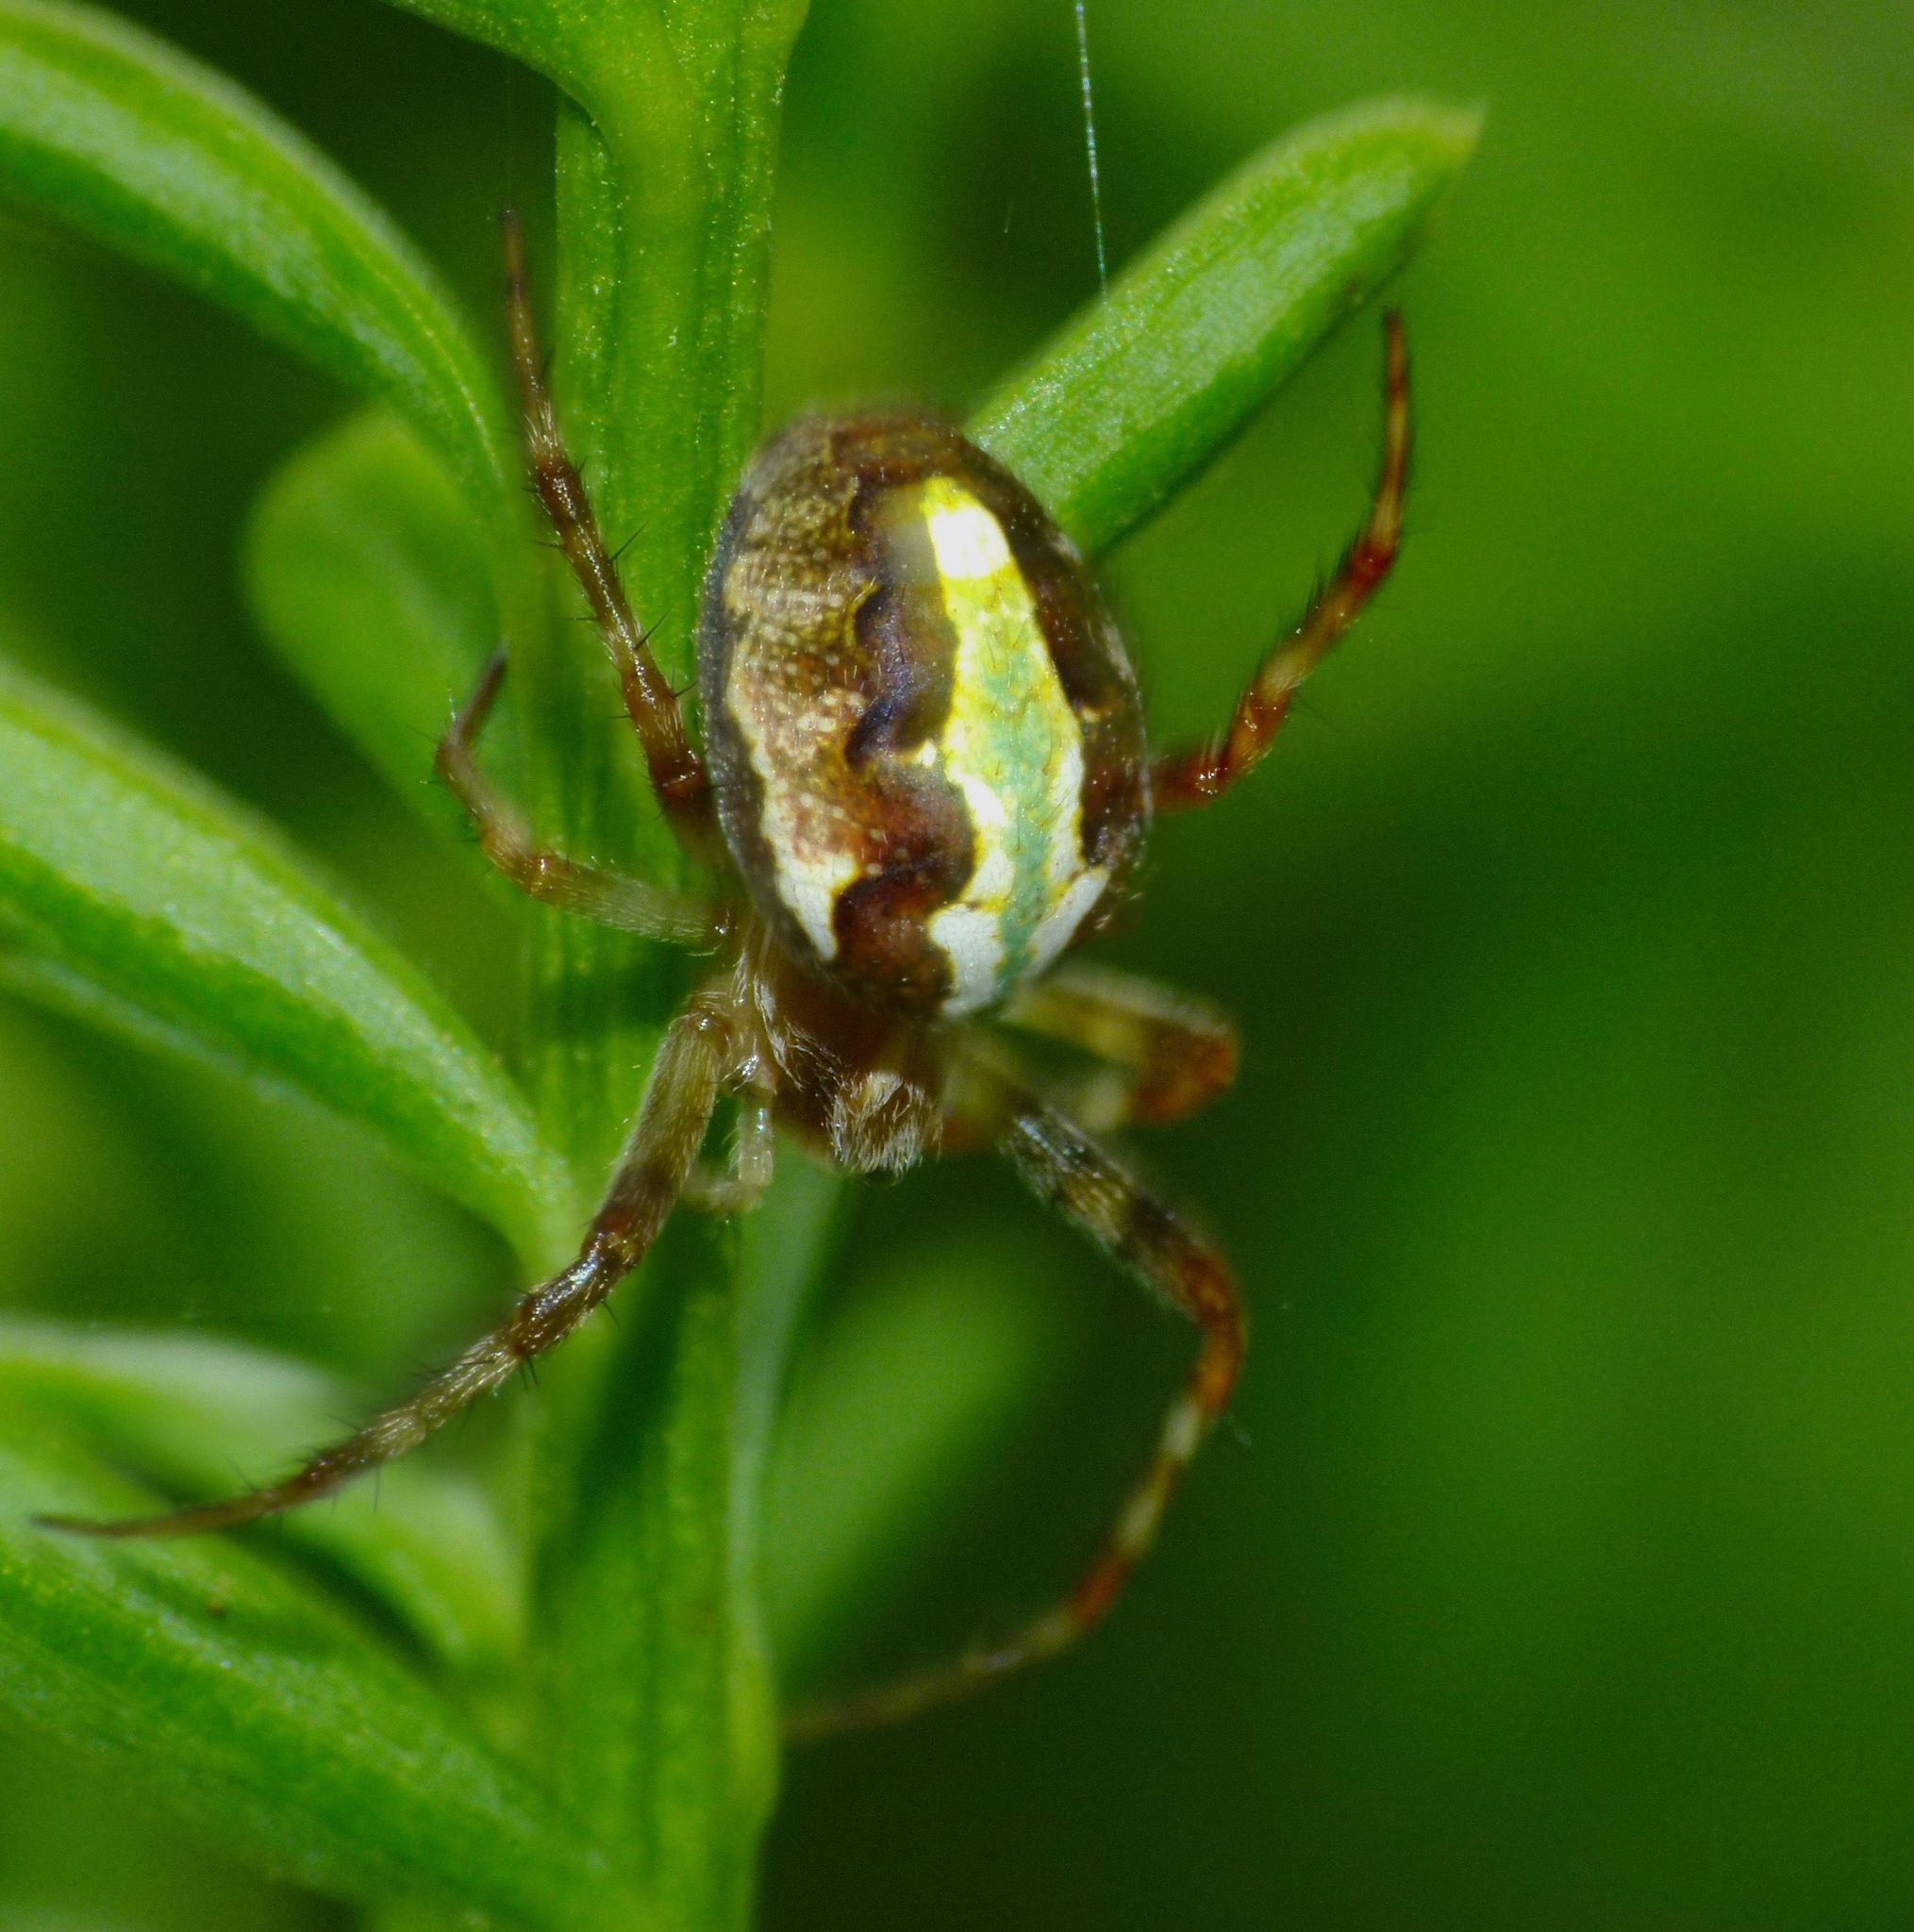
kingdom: Animalia
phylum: Arthropoda
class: Arachnida
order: Araneae
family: Araneidae
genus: Novaranea
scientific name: Novaranea queribunda
